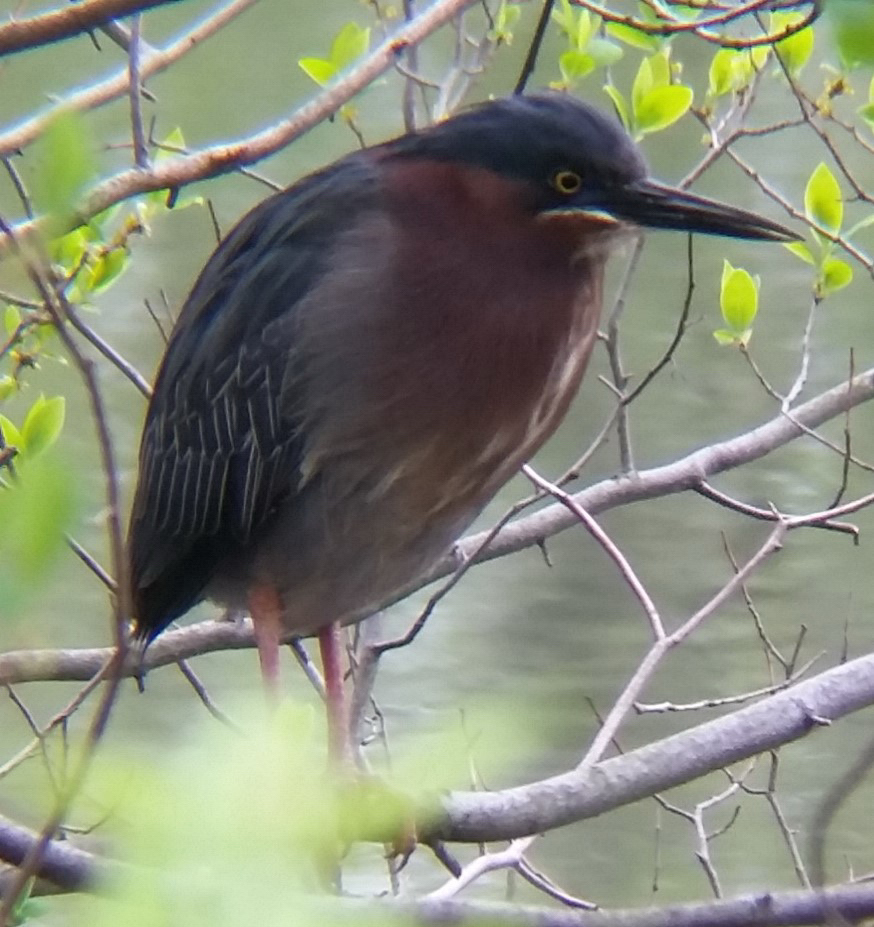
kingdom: Animalia
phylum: Chordata
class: Aves
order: Pelecaniformes
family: Ardeidae
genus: Butorides
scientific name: Butorides virescens
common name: Green heron
